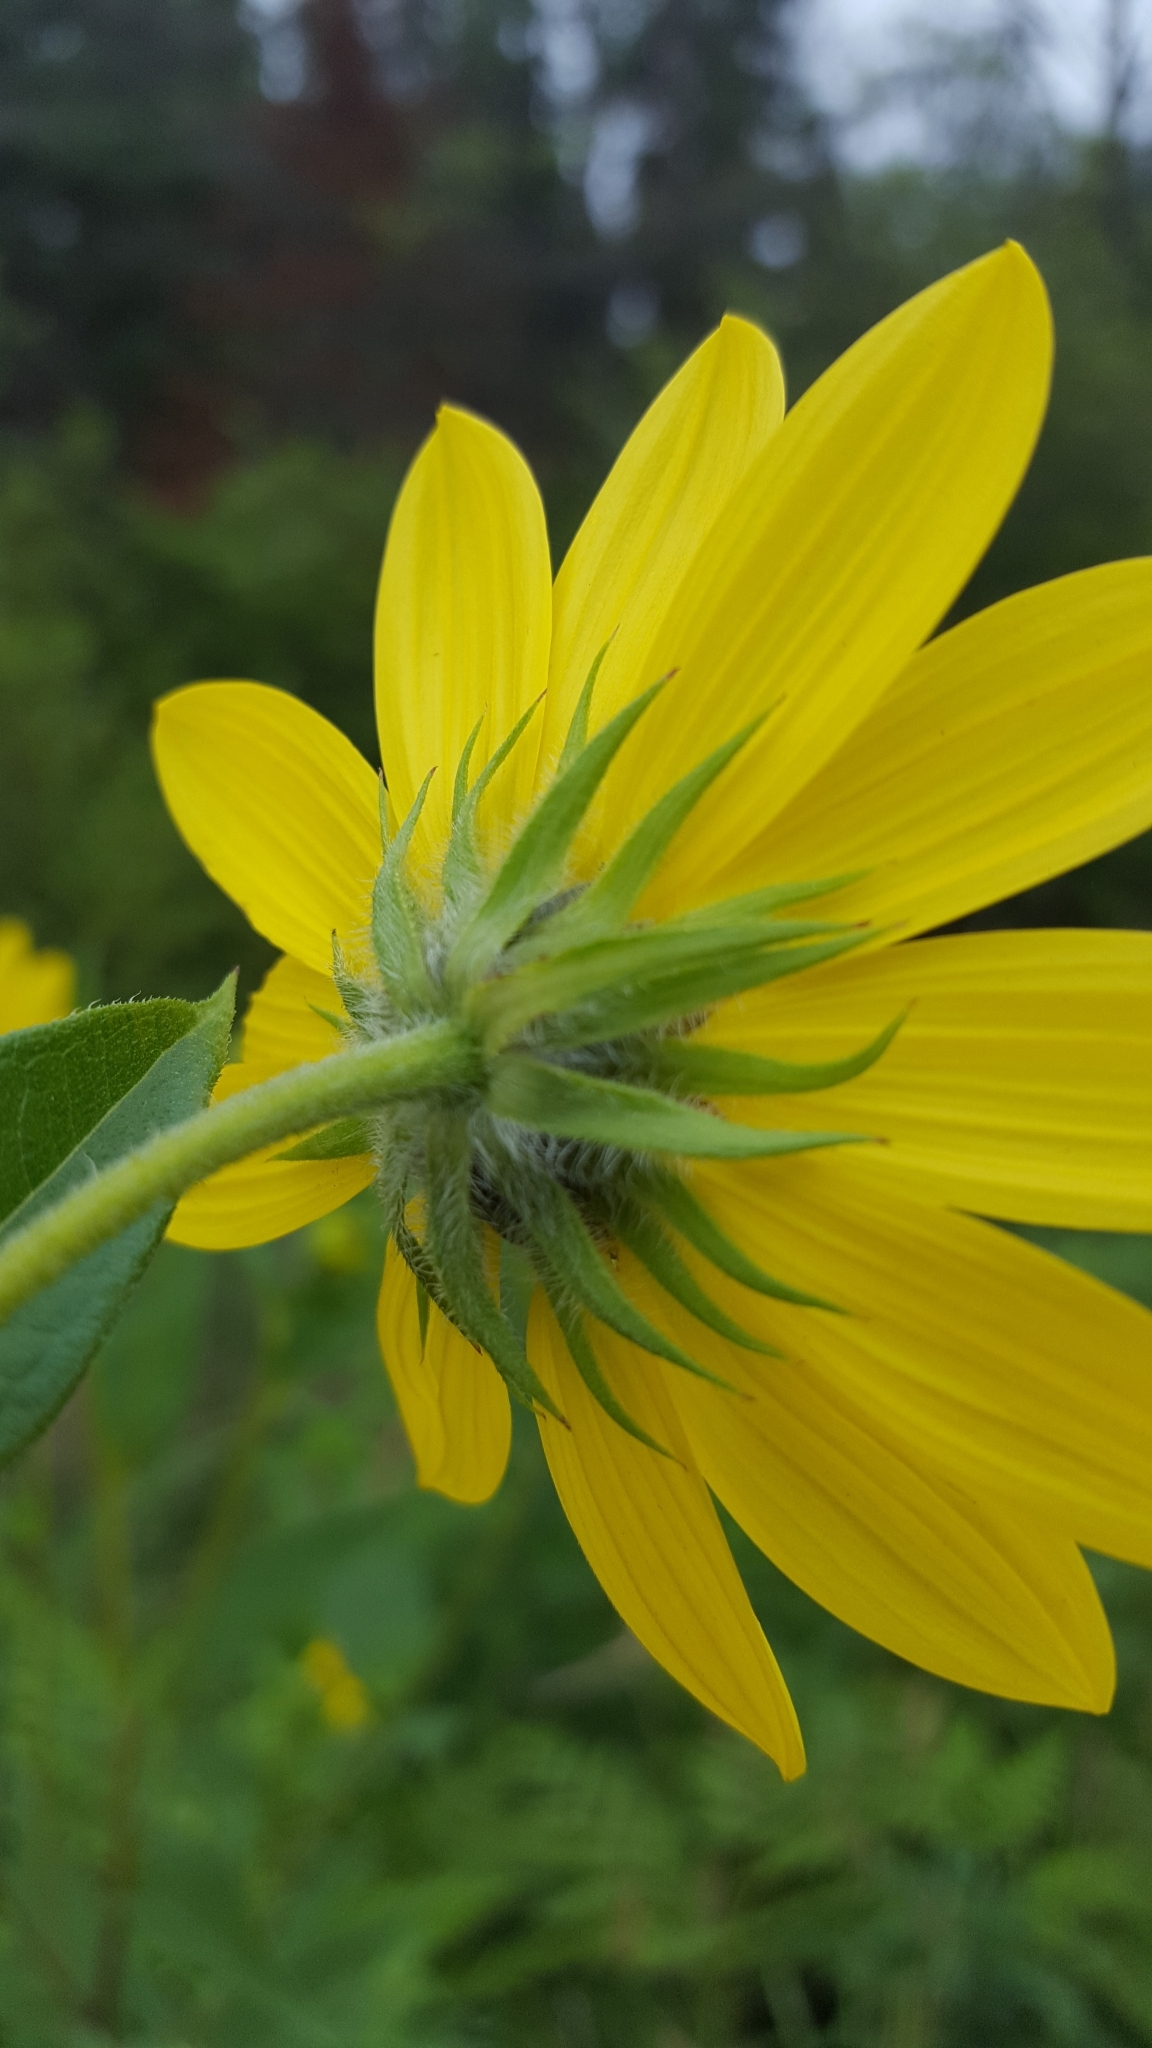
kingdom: Plantae
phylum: Tracheophyta
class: Magnoliopsida
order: Asterales
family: Asteraceae
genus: Helianthus
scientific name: Helianthus giganteus
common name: Giant sunflower
